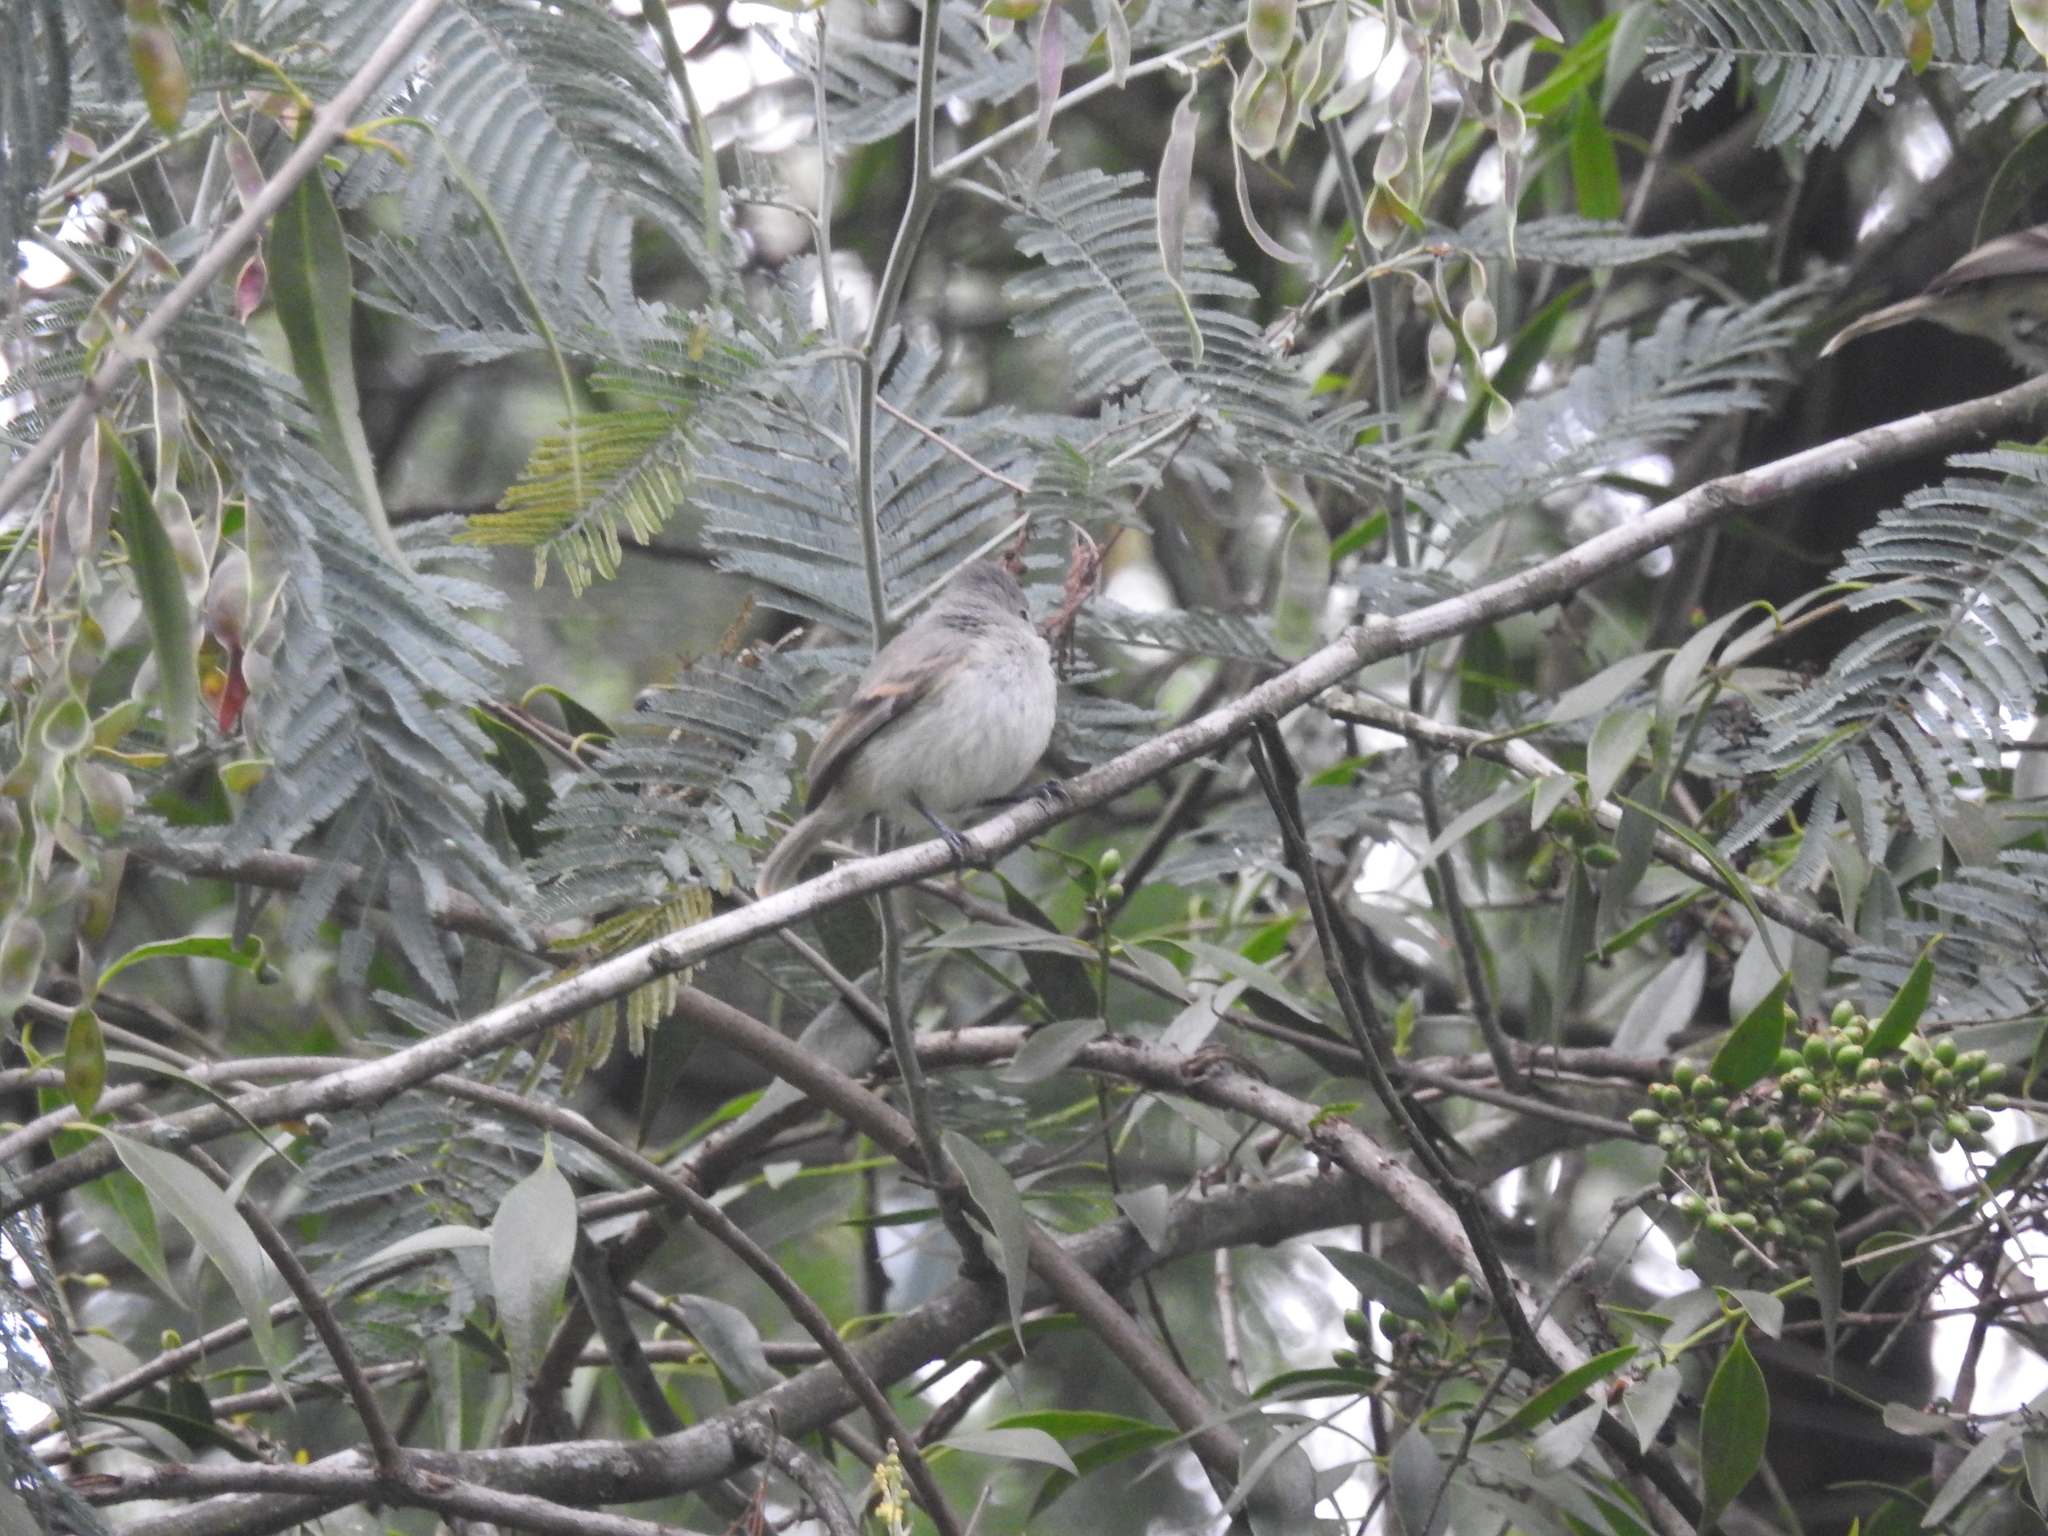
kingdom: Animalia
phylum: Chordata
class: Aves
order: Passeriformes
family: Tyrannidae
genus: Camptostoma
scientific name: Camptostoma obsoletum
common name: Southern beardless-tyrannulet
